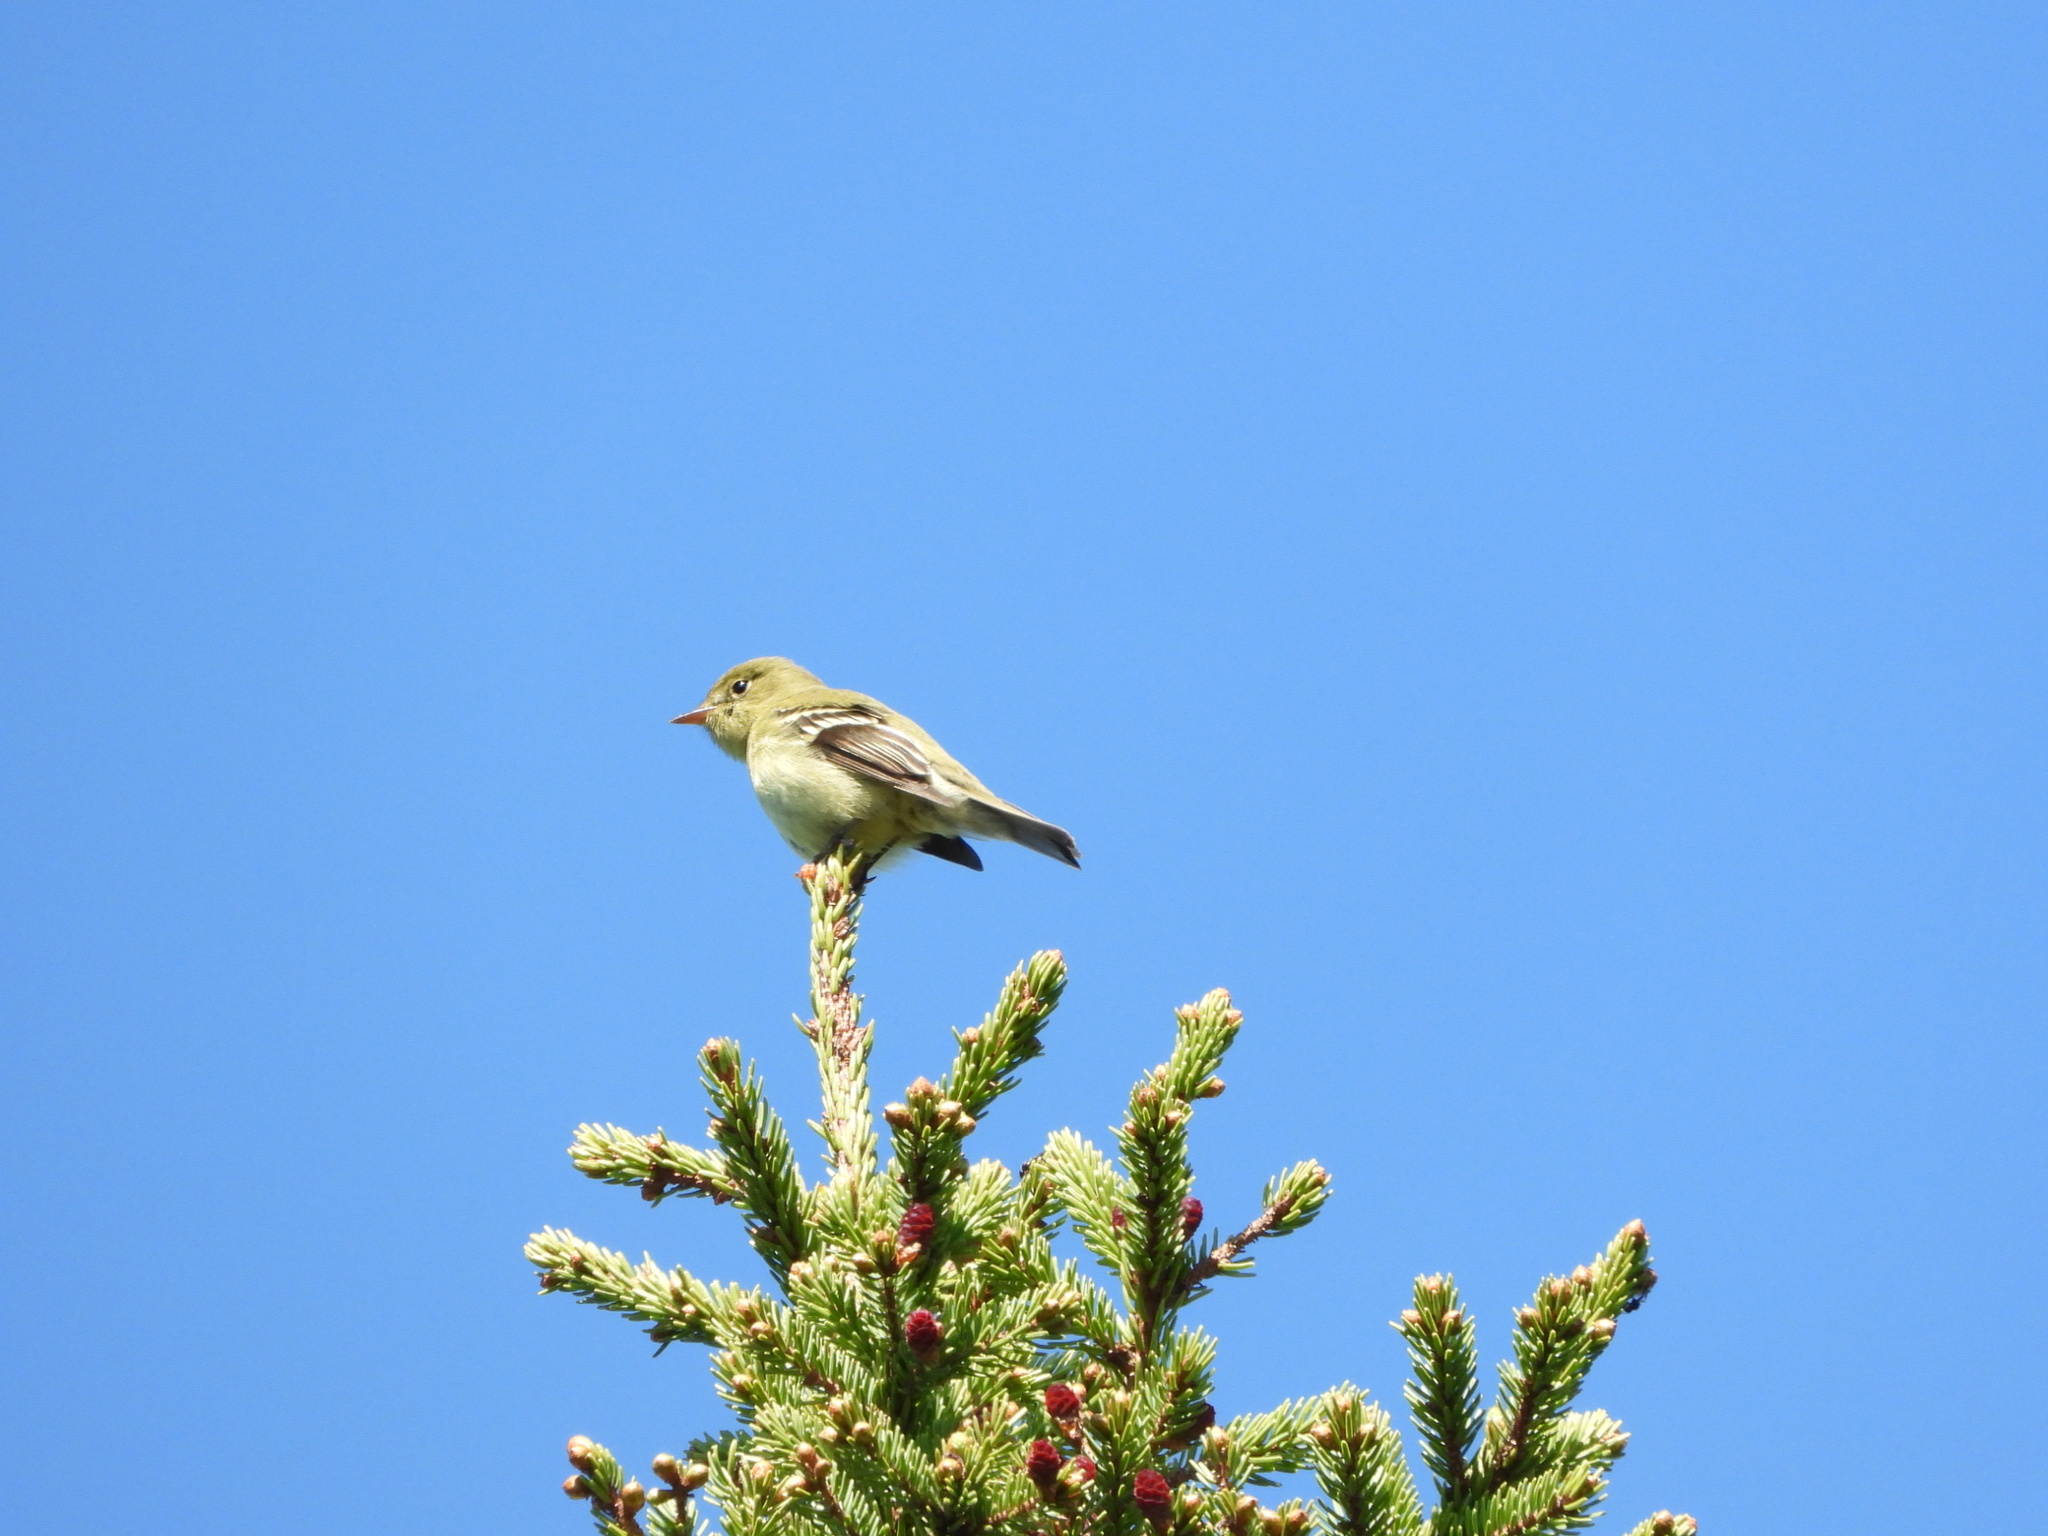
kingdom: Animalia
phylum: Chordata
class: Aves
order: Passeriformes
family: Tyrannidae
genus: Empidonax
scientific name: Empidonax flaviventris
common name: Yellow-bellied flycatcher
